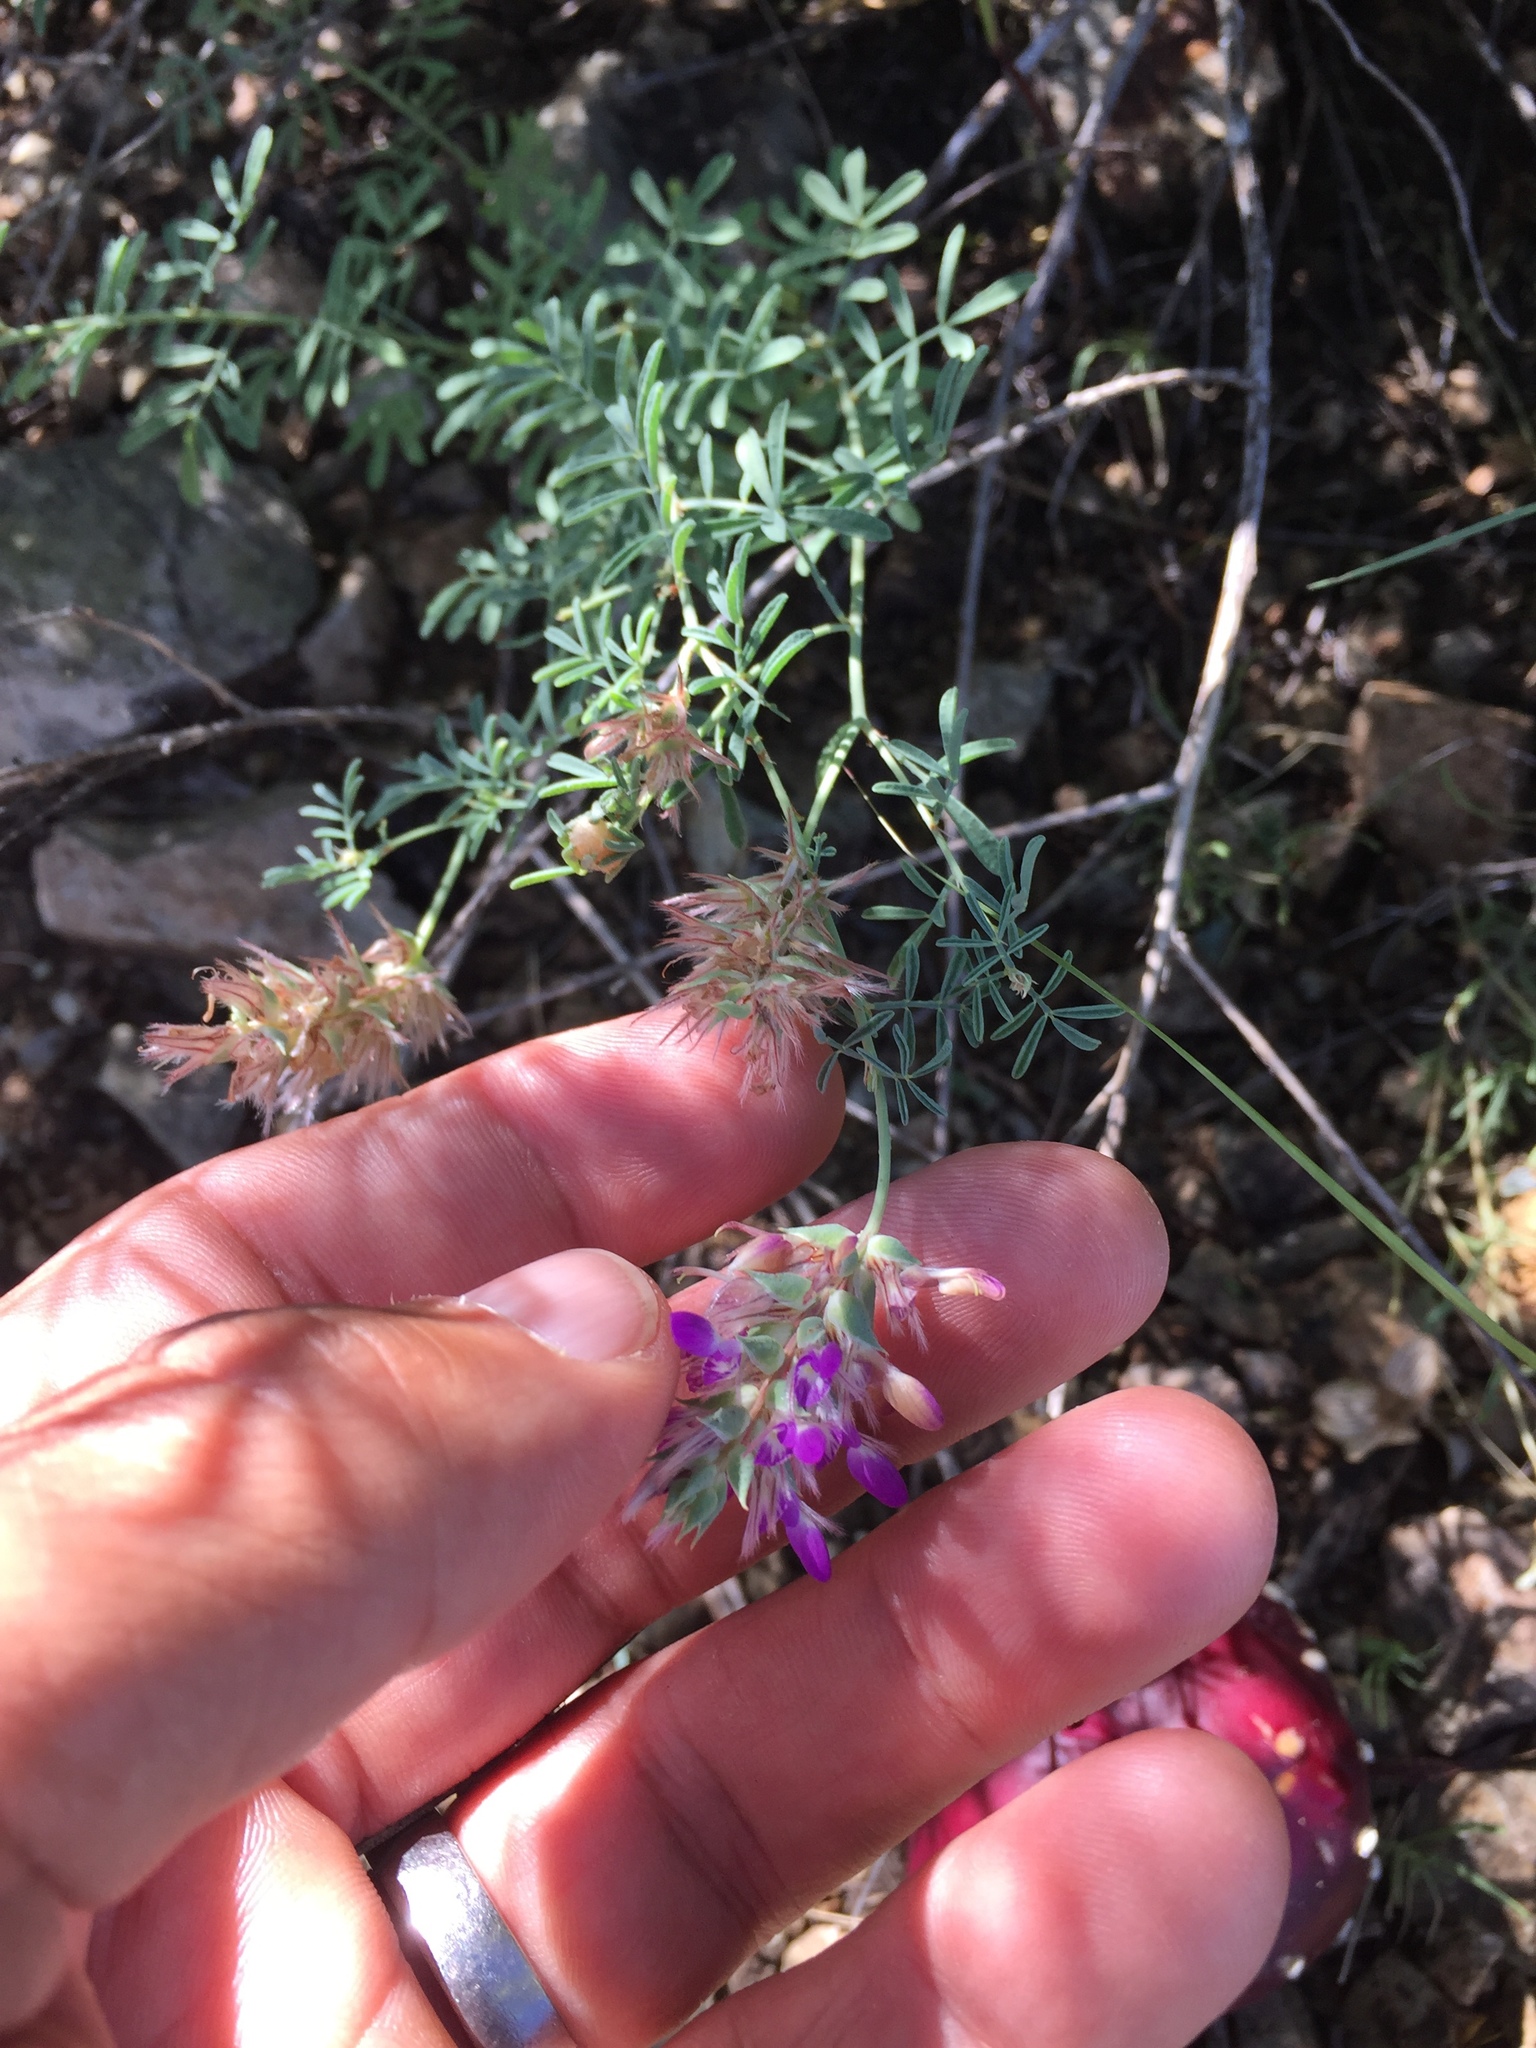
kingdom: Plantae
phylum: Tracheophyta
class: Magnoliopsida
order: Fabales
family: Fabaceae
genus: Dalea
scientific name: Dalea pogonathera
